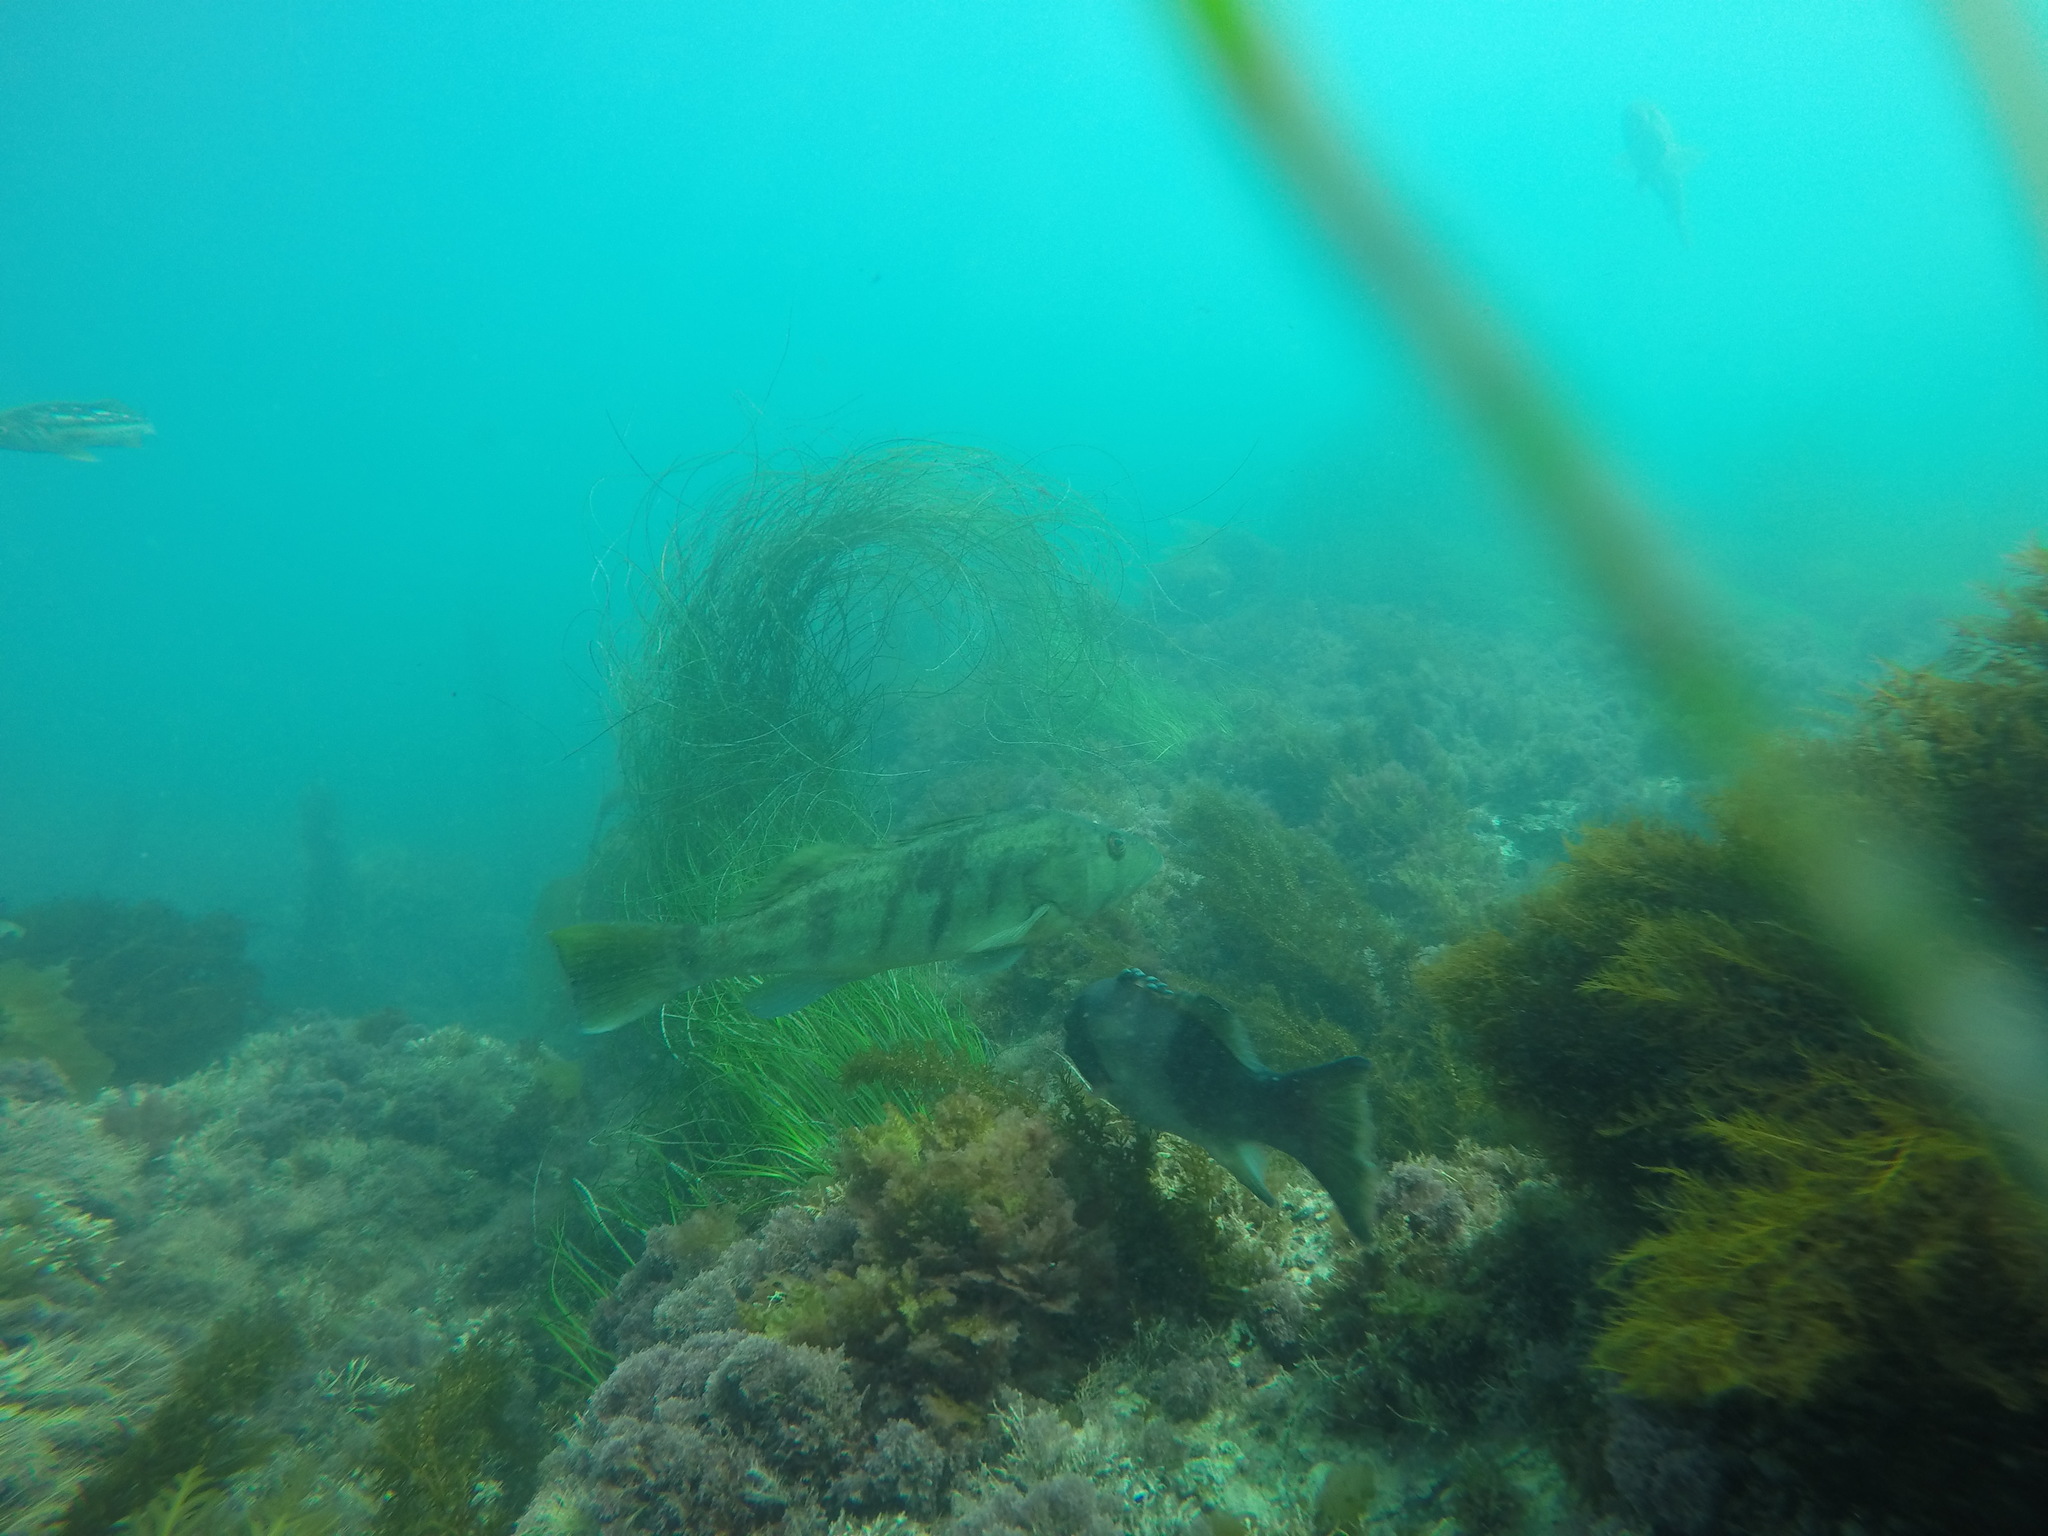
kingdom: Animalia
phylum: Chordata
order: Perciformes
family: Serranidae
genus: Paralabrax
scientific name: Paralabrax nebulifer
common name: Barred sand bass
